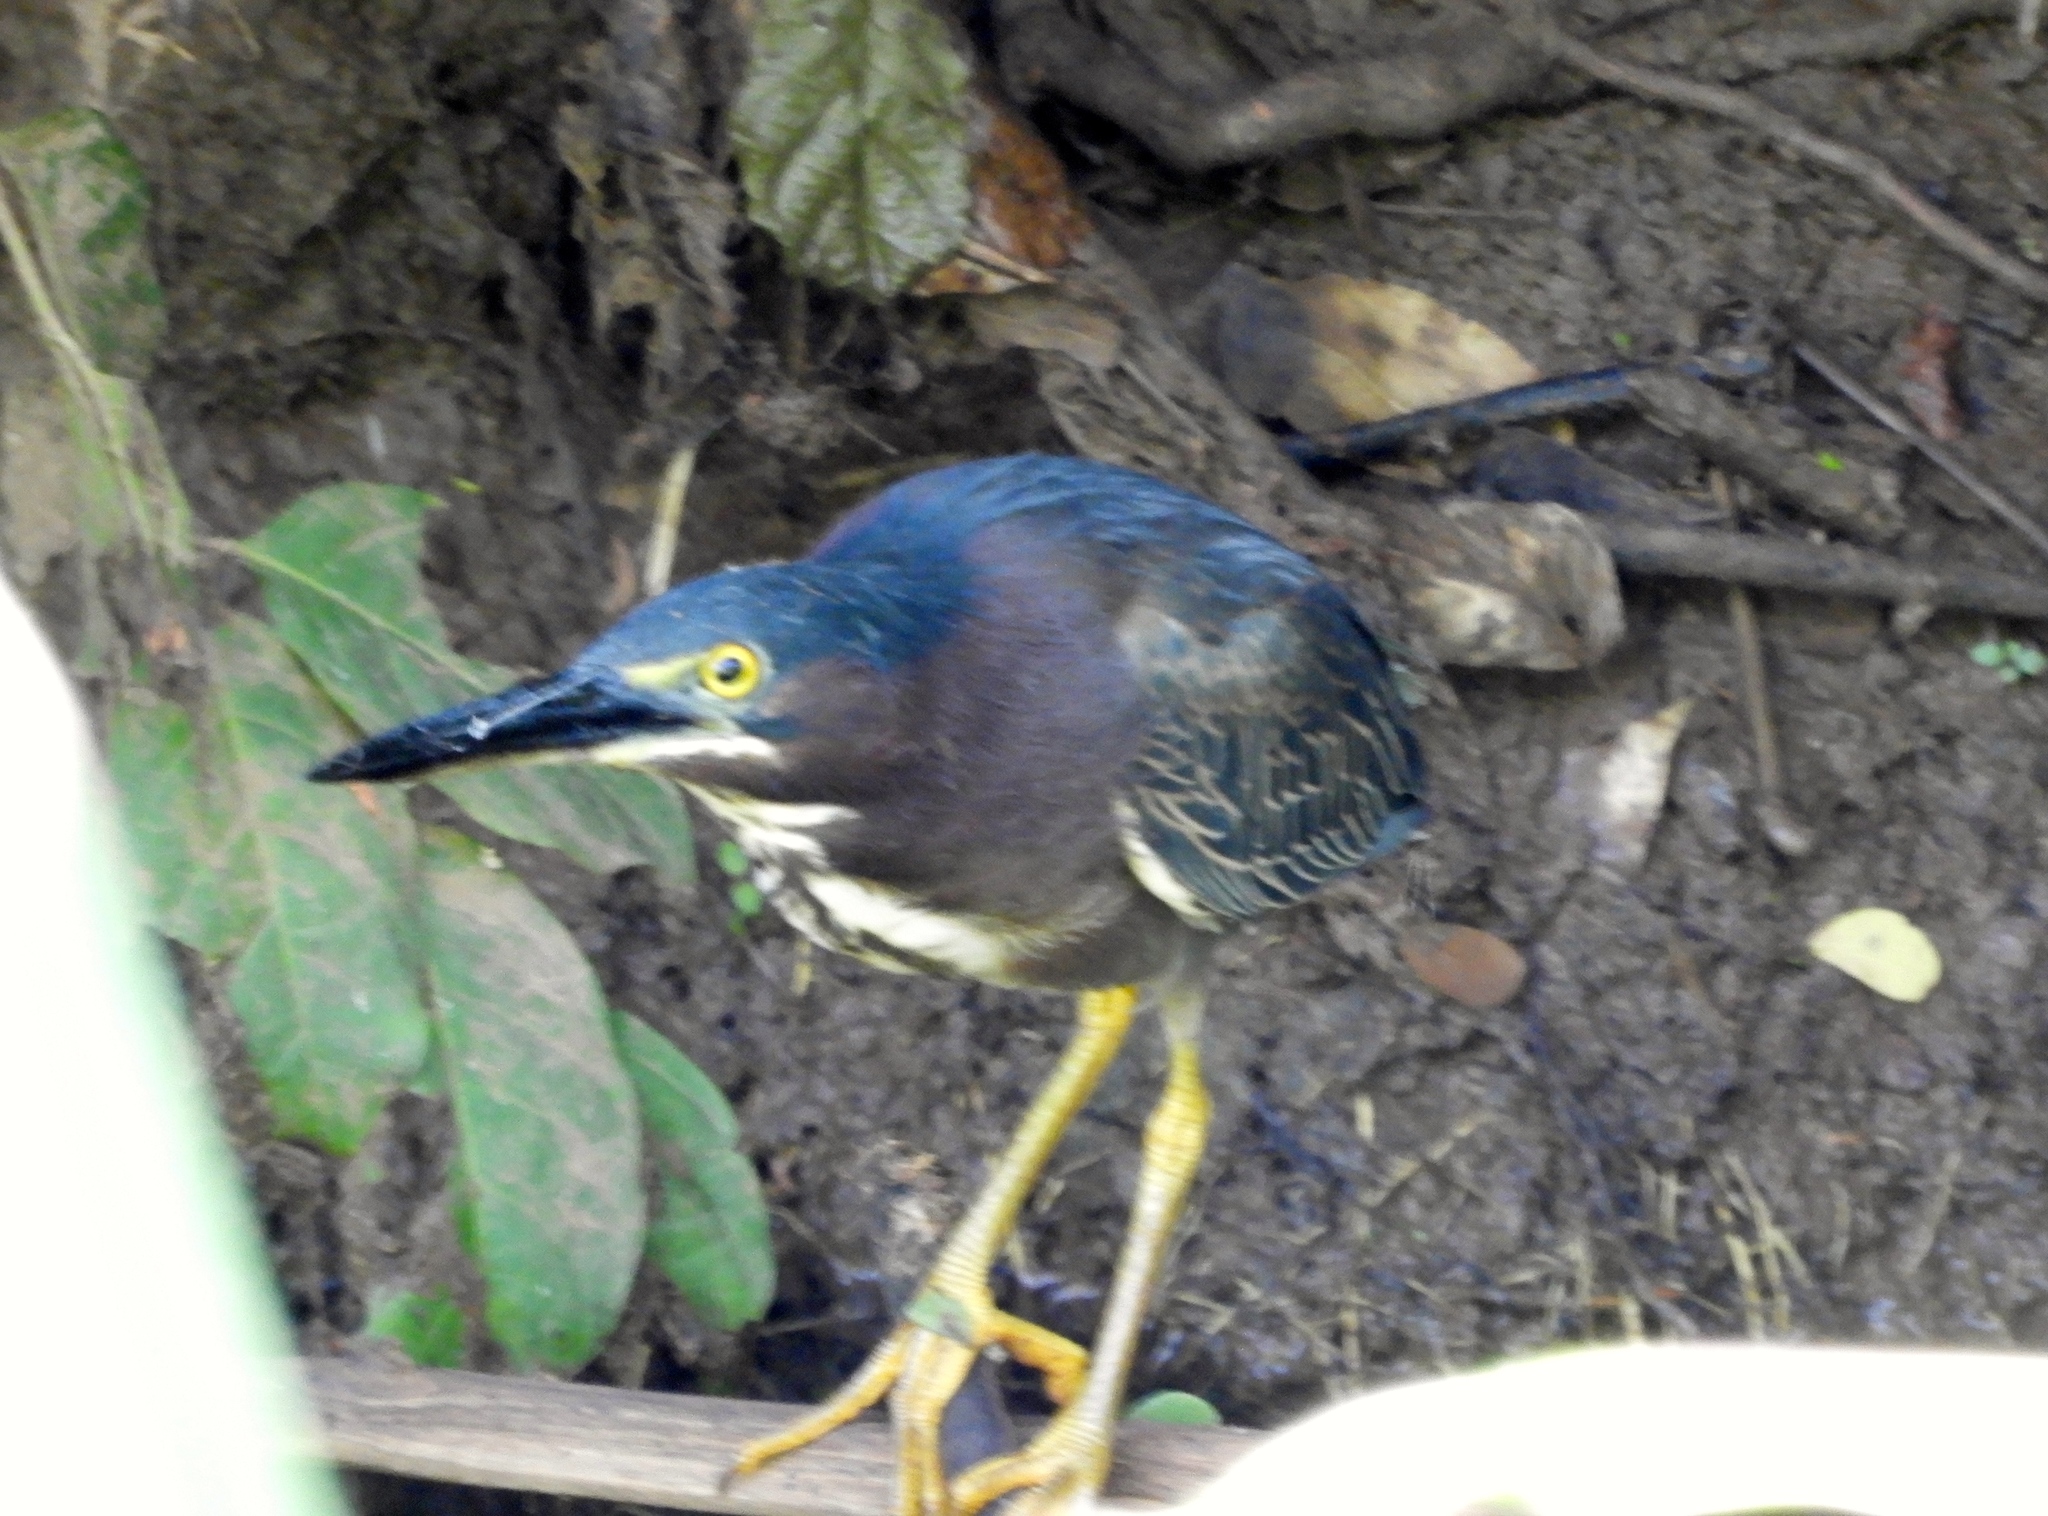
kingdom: Animalia
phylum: Chordata
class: Aves
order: Pelecaniformes
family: Ardeidae
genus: Butorides
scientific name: Butorides virescens
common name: Green heron
